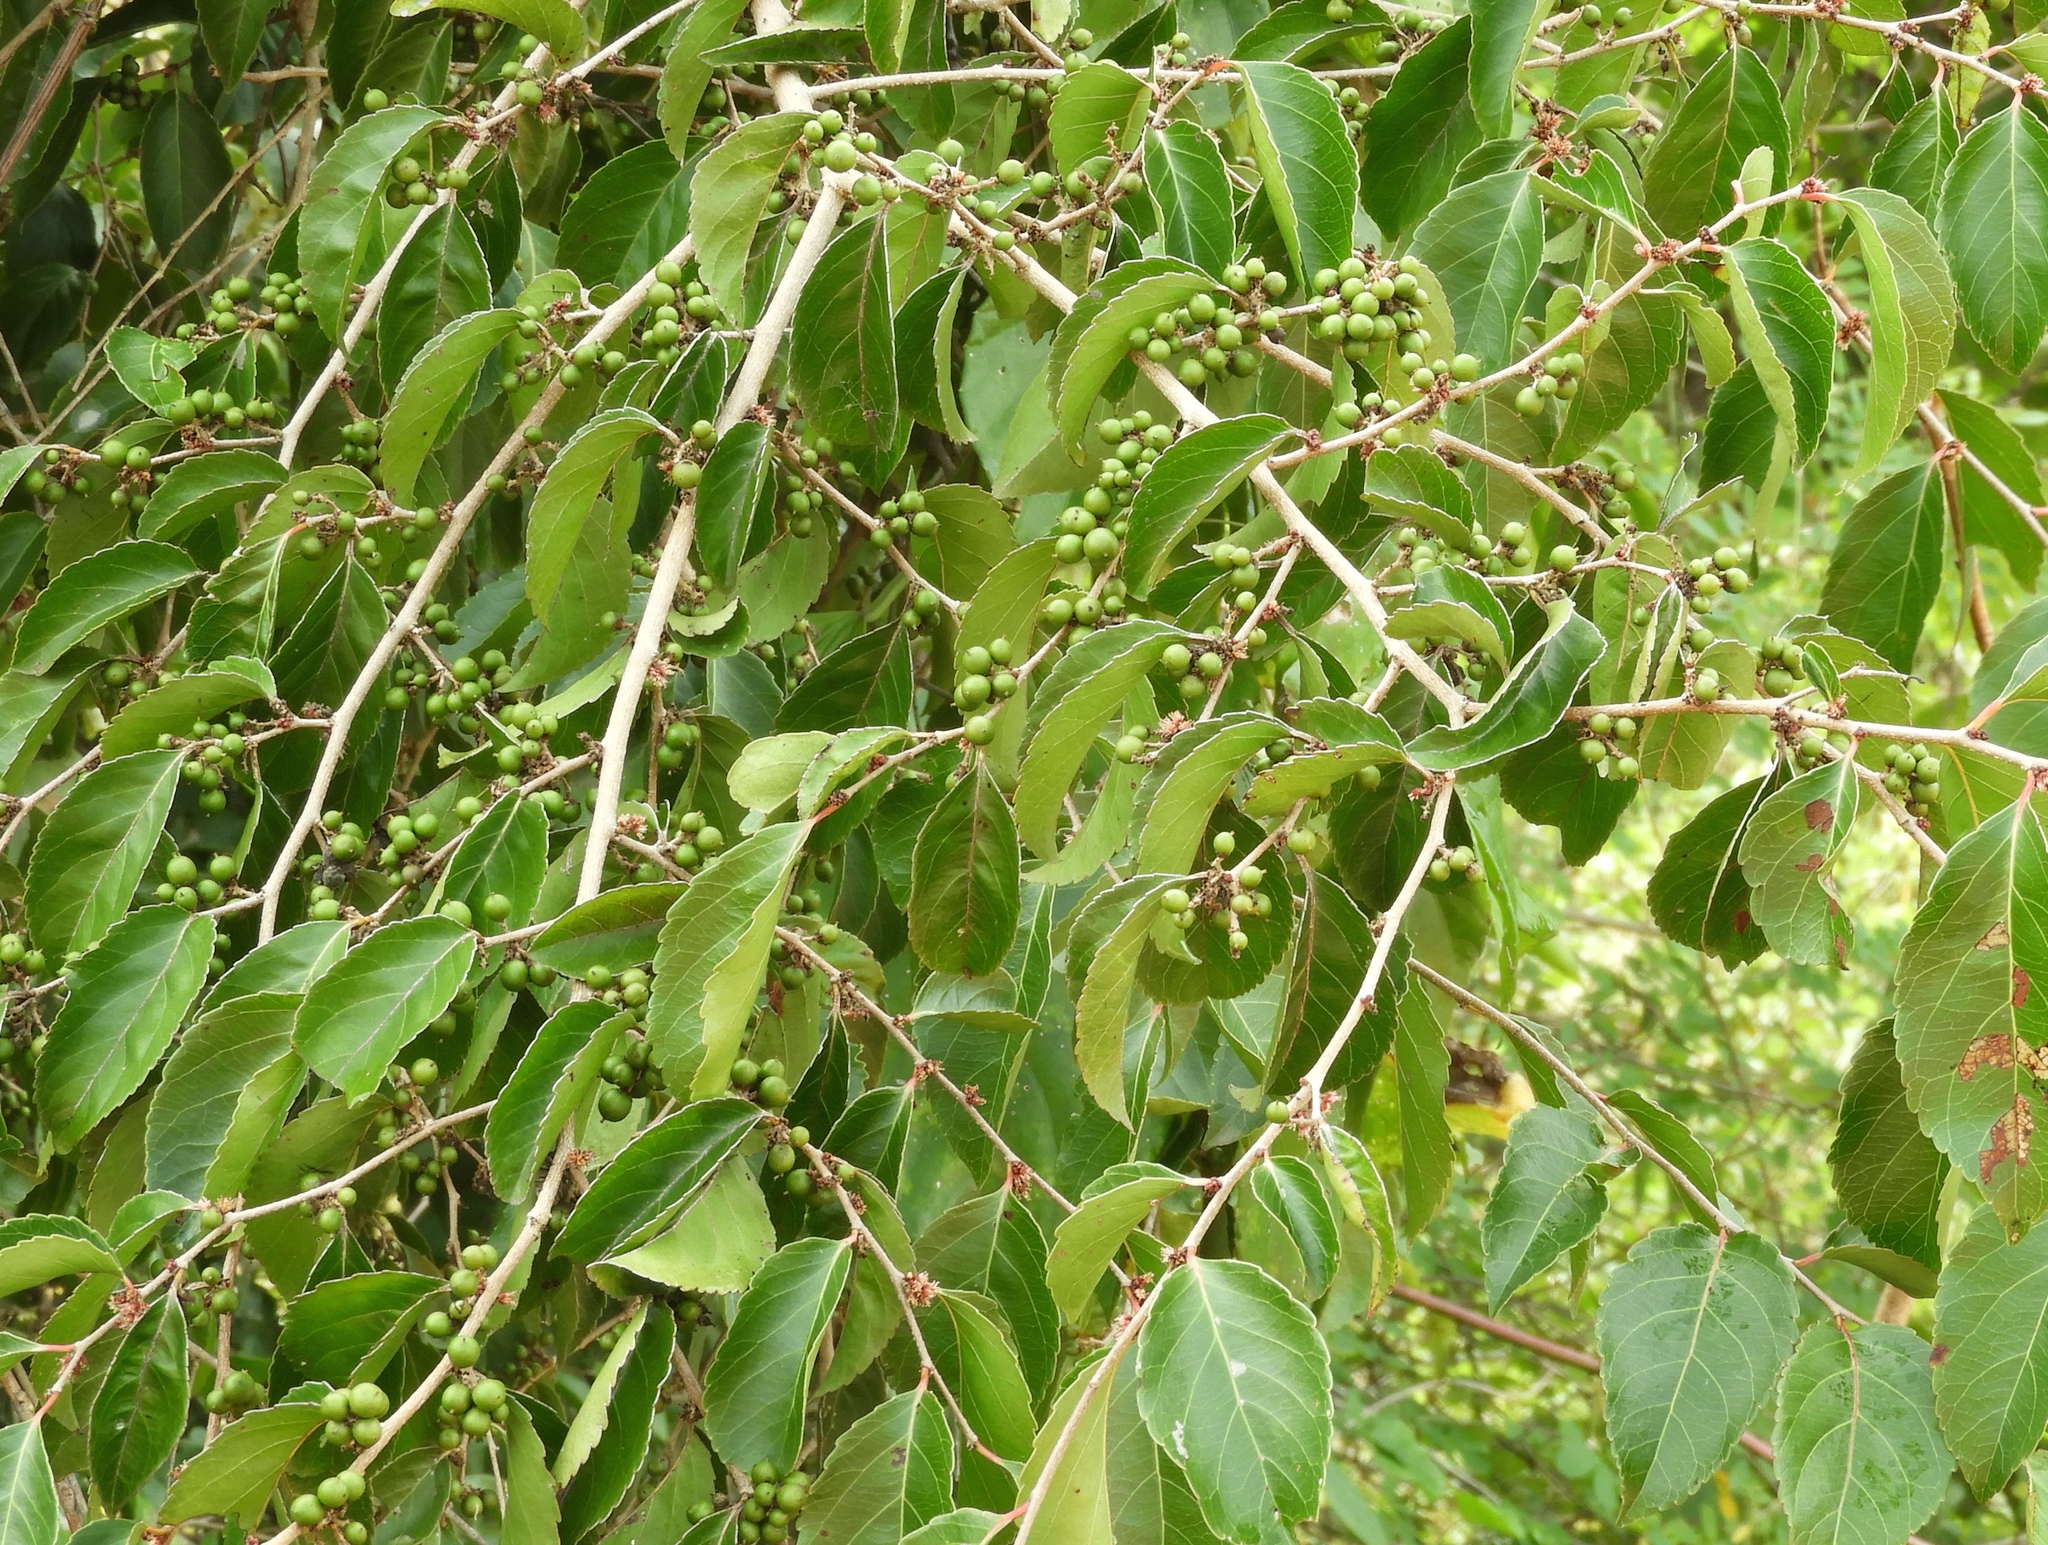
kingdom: Plantae
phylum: Tracheophyta
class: Magnoliopsida
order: Rosales
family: Rhamnaceae
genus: Colubrina
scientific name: Colubrina triflora
